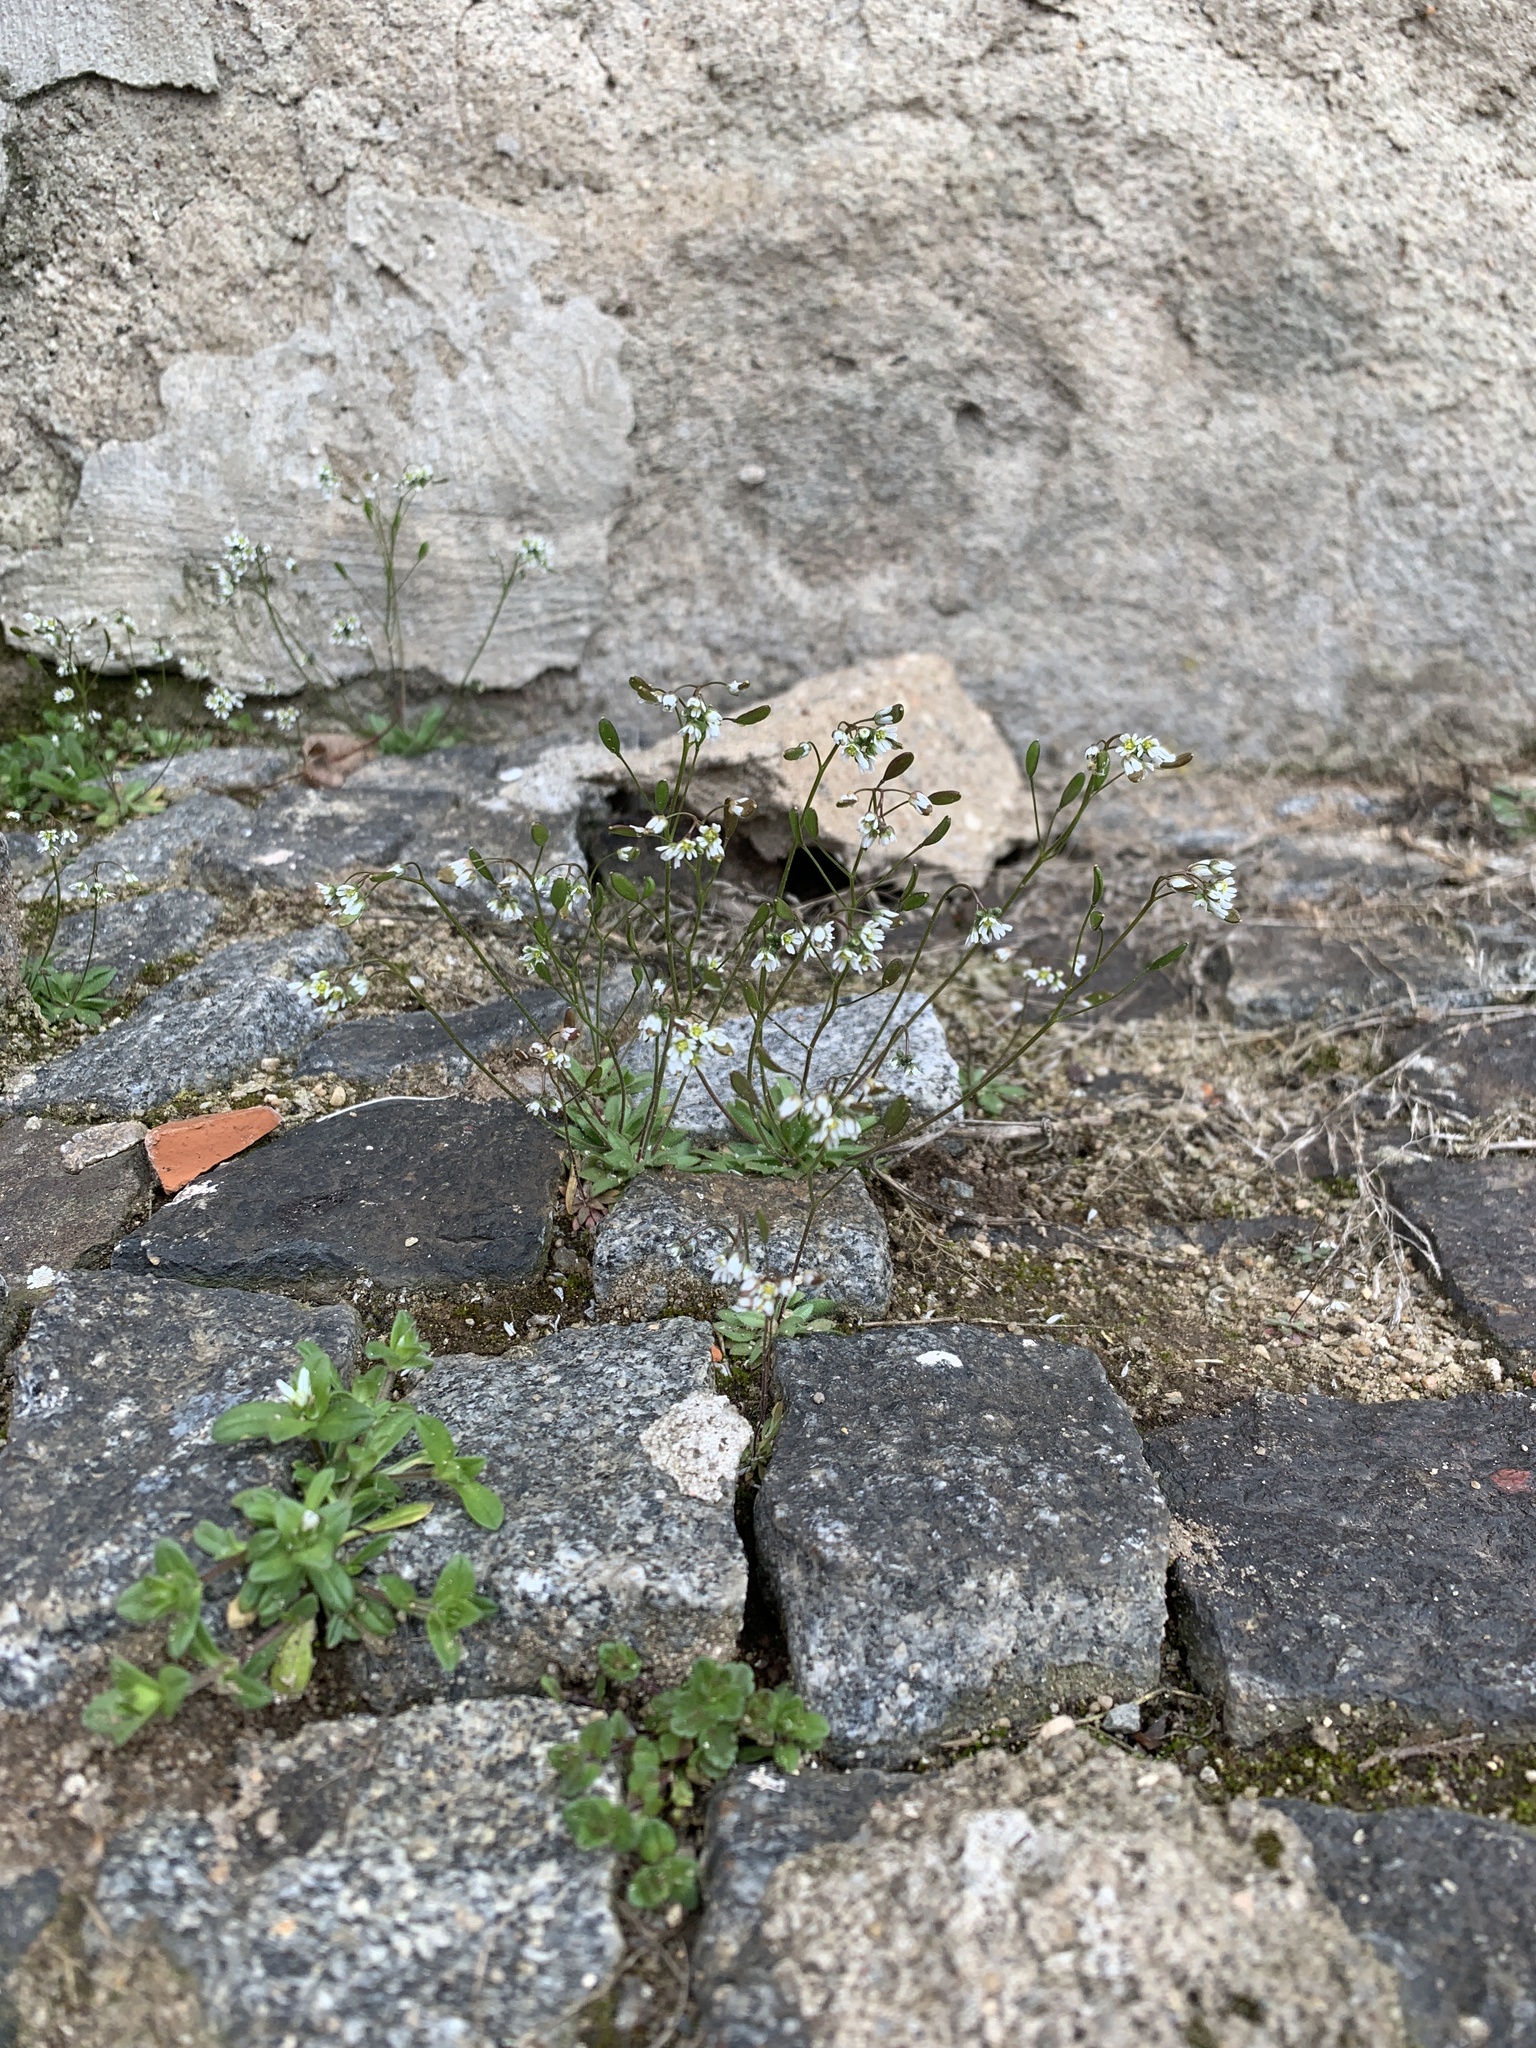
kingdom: Plantae
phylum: Tracheophyta
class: Magnoliopsida
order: Brassicales
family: Brassicaceae
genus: Draba
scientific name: Draba verna
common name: Spring draba
